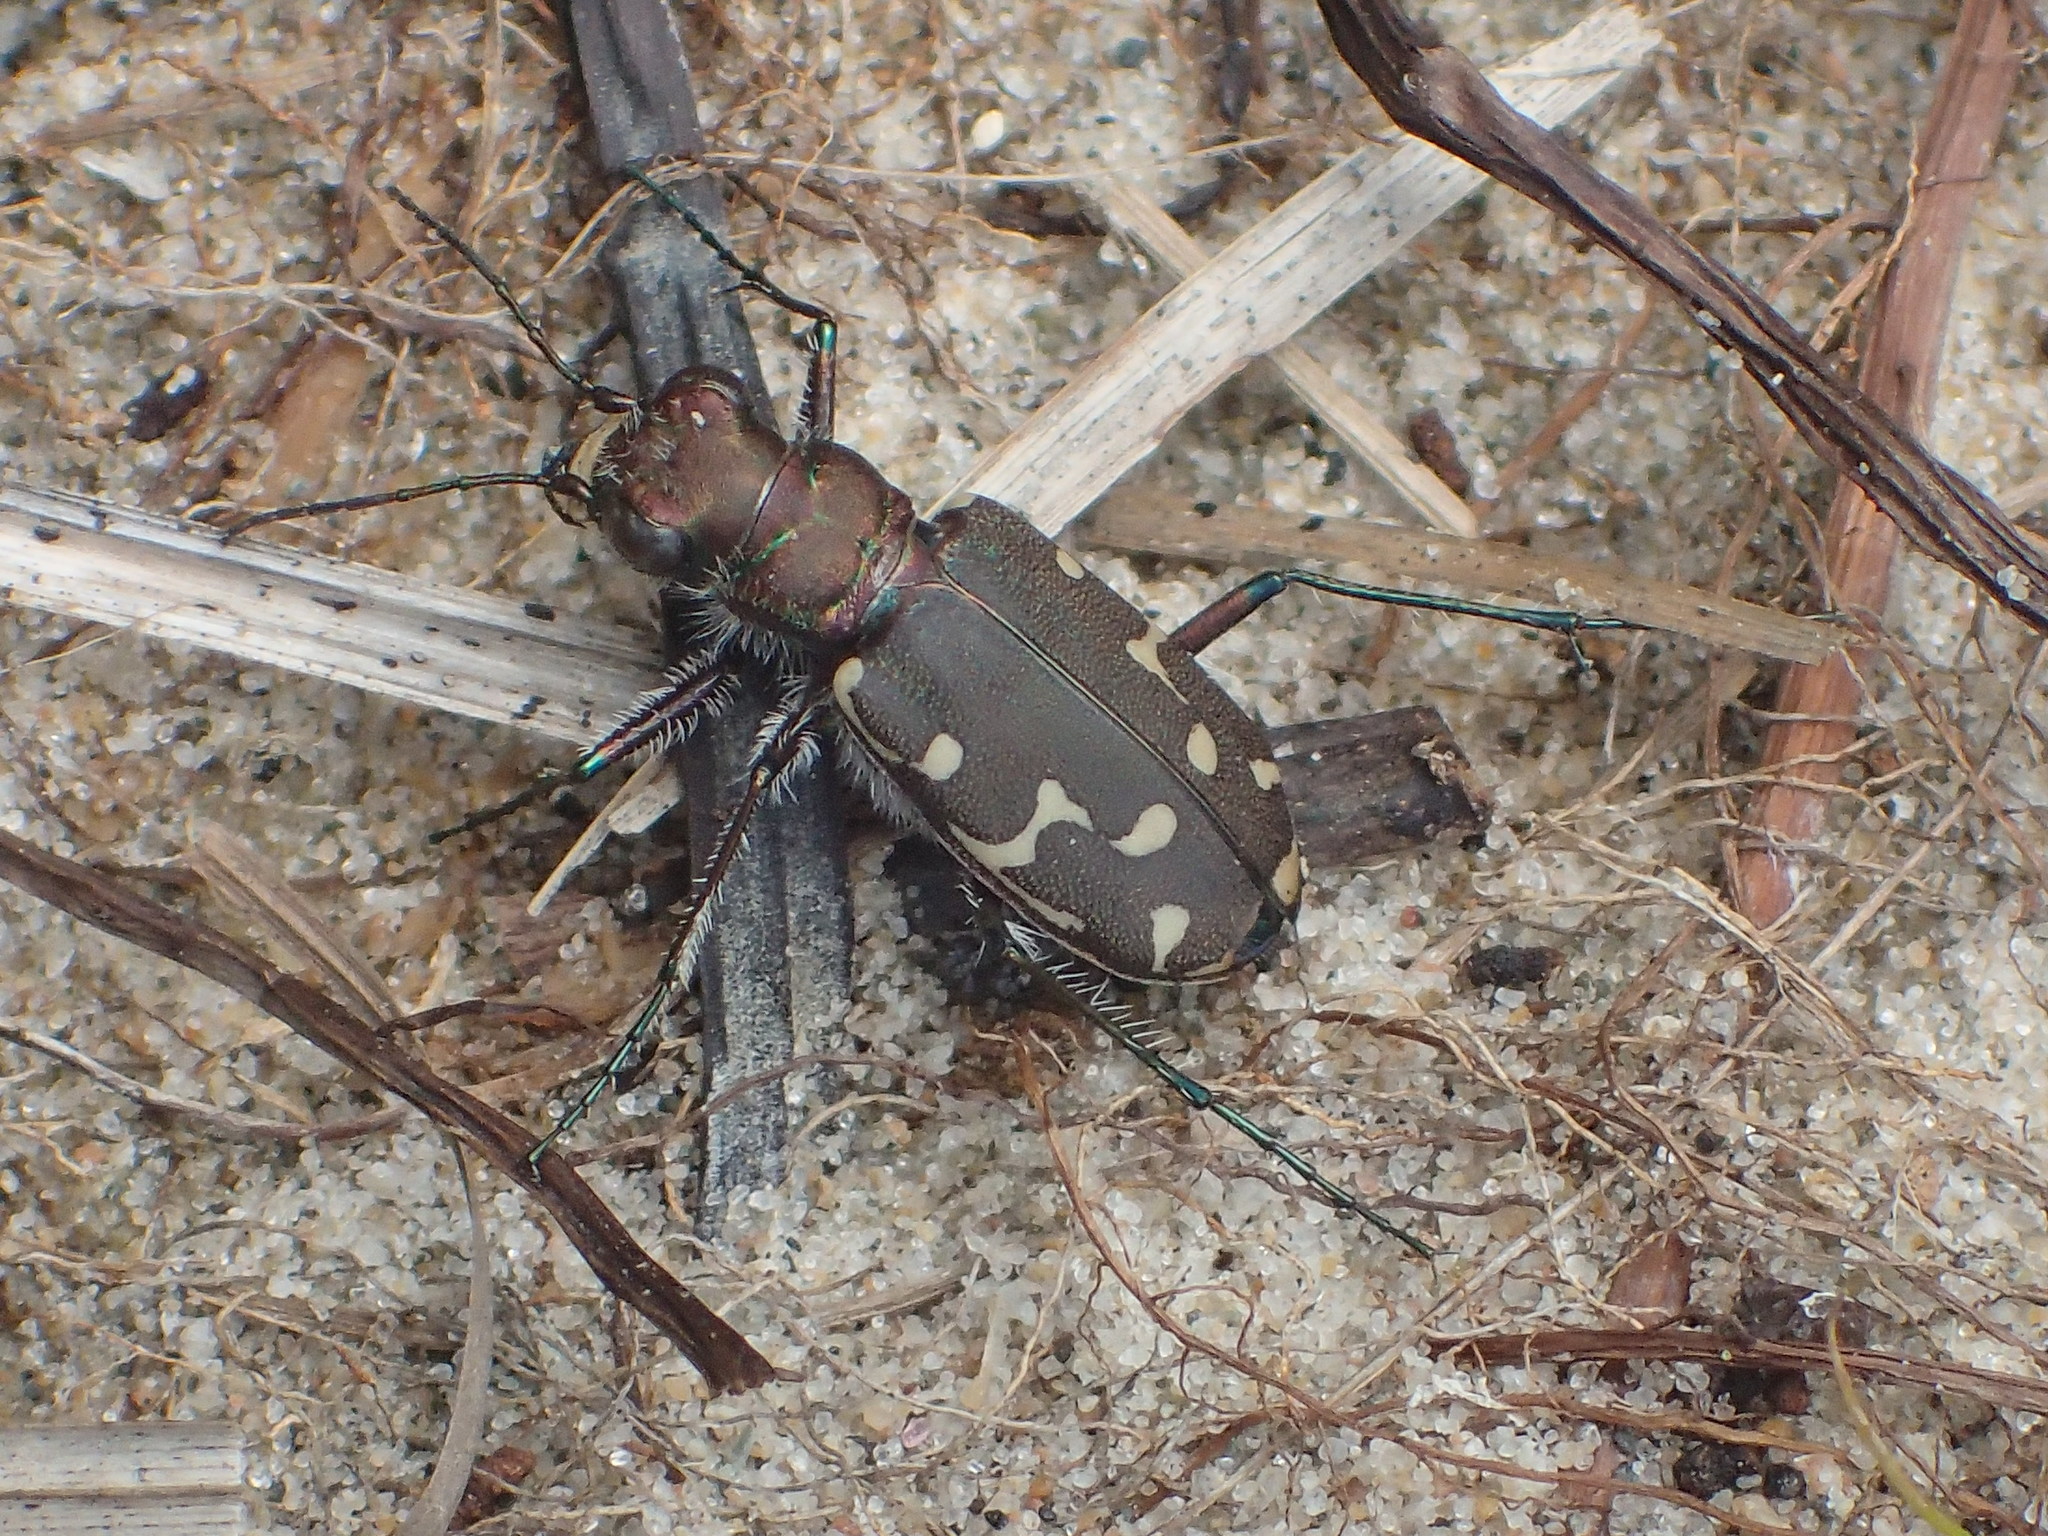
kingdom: Animalia
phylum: Arthropoda
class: Insecta
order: Coleoptera
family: Carabidae
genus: Cicindela
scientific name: Cicindela duodecimguttata
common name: Twelve-spotted tiger beetle
